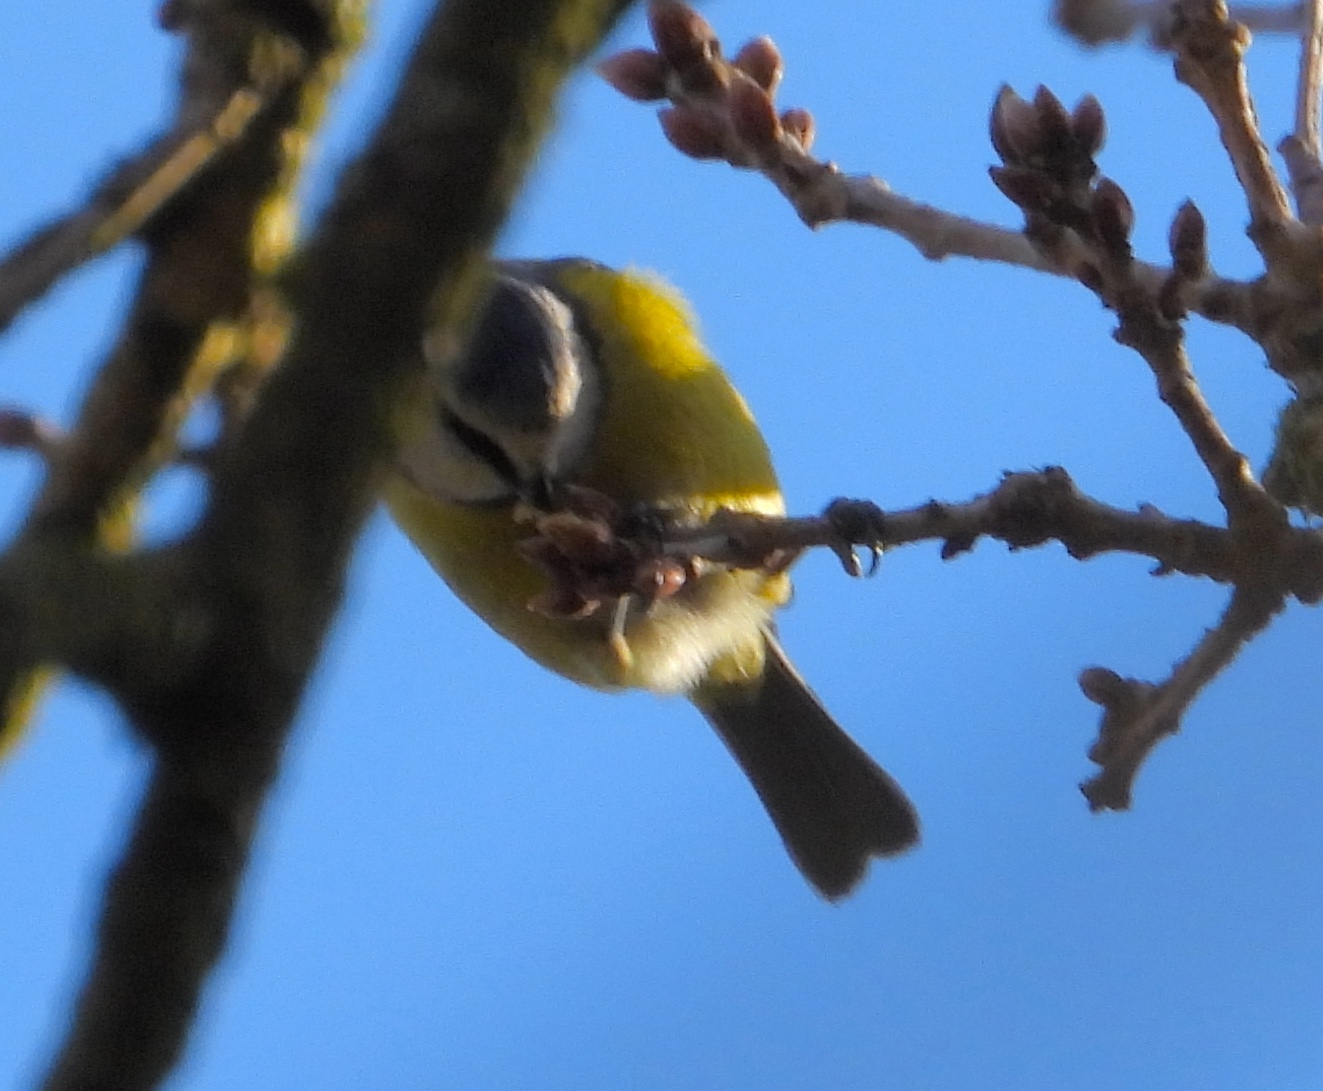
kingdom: Animalia
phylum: Chordata
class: Aves
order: Passeriformes
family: Paridae
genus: Cyanistes
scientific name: Cyanistes caeruleus
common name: Eurasian blue tit
